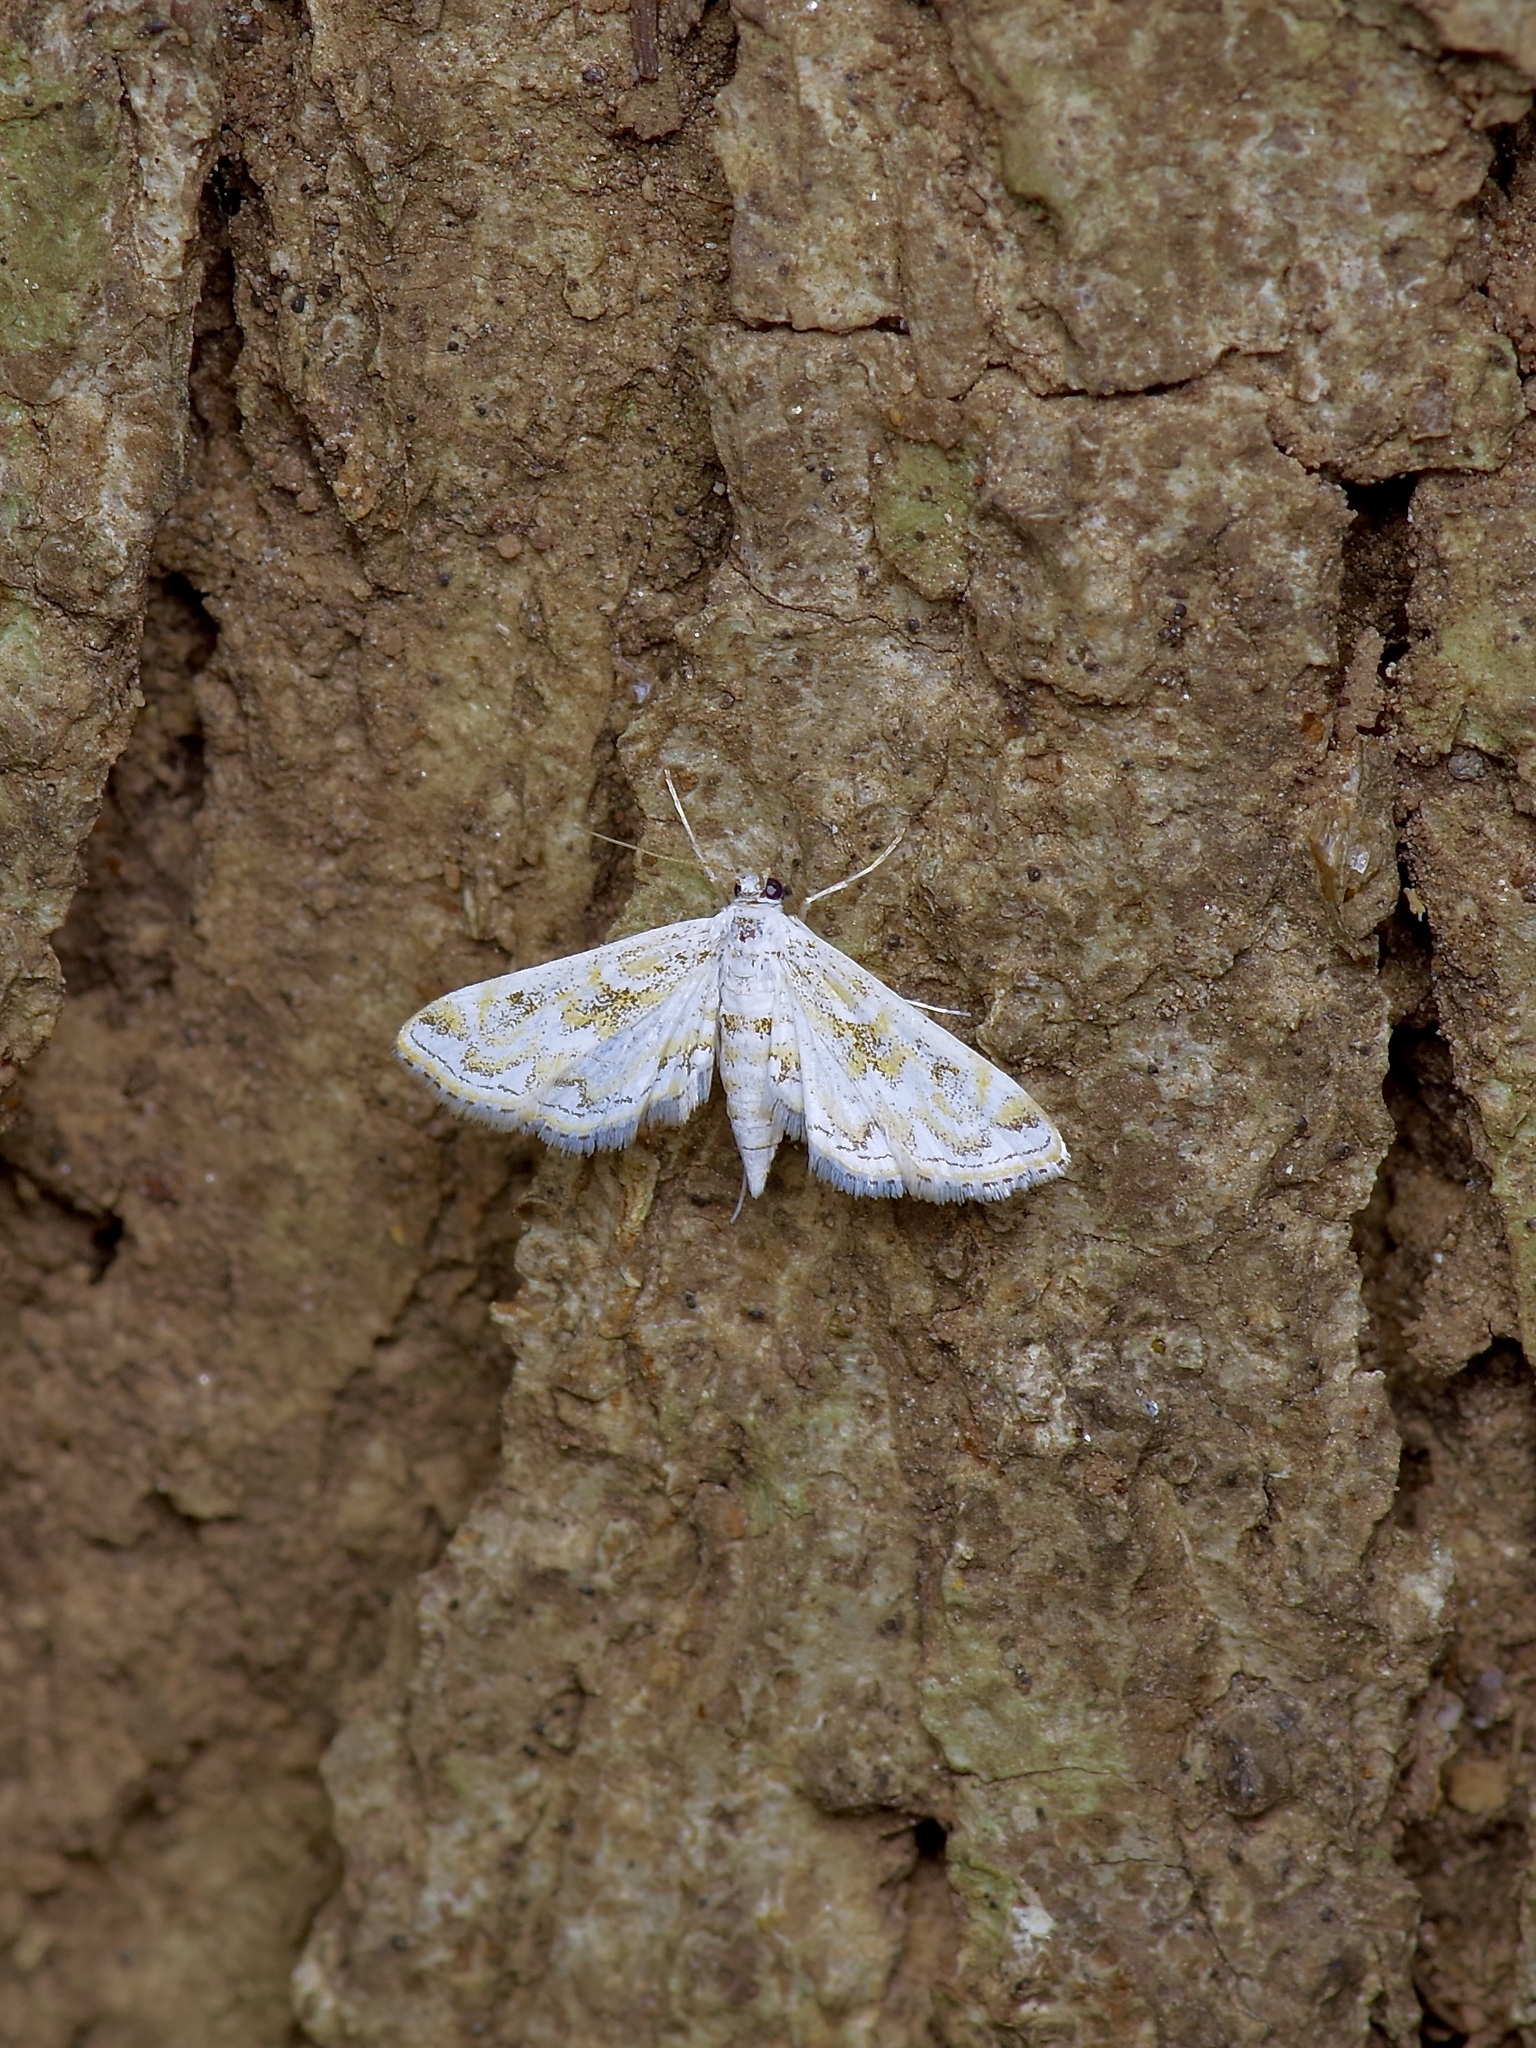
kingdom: Animalia
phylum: Arthropoda
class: Insecta
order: Lepidoptera
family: Crambidae
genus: Parapoynx
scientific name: Parapoynx diminutalis
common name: Hydrilla leafcutter
